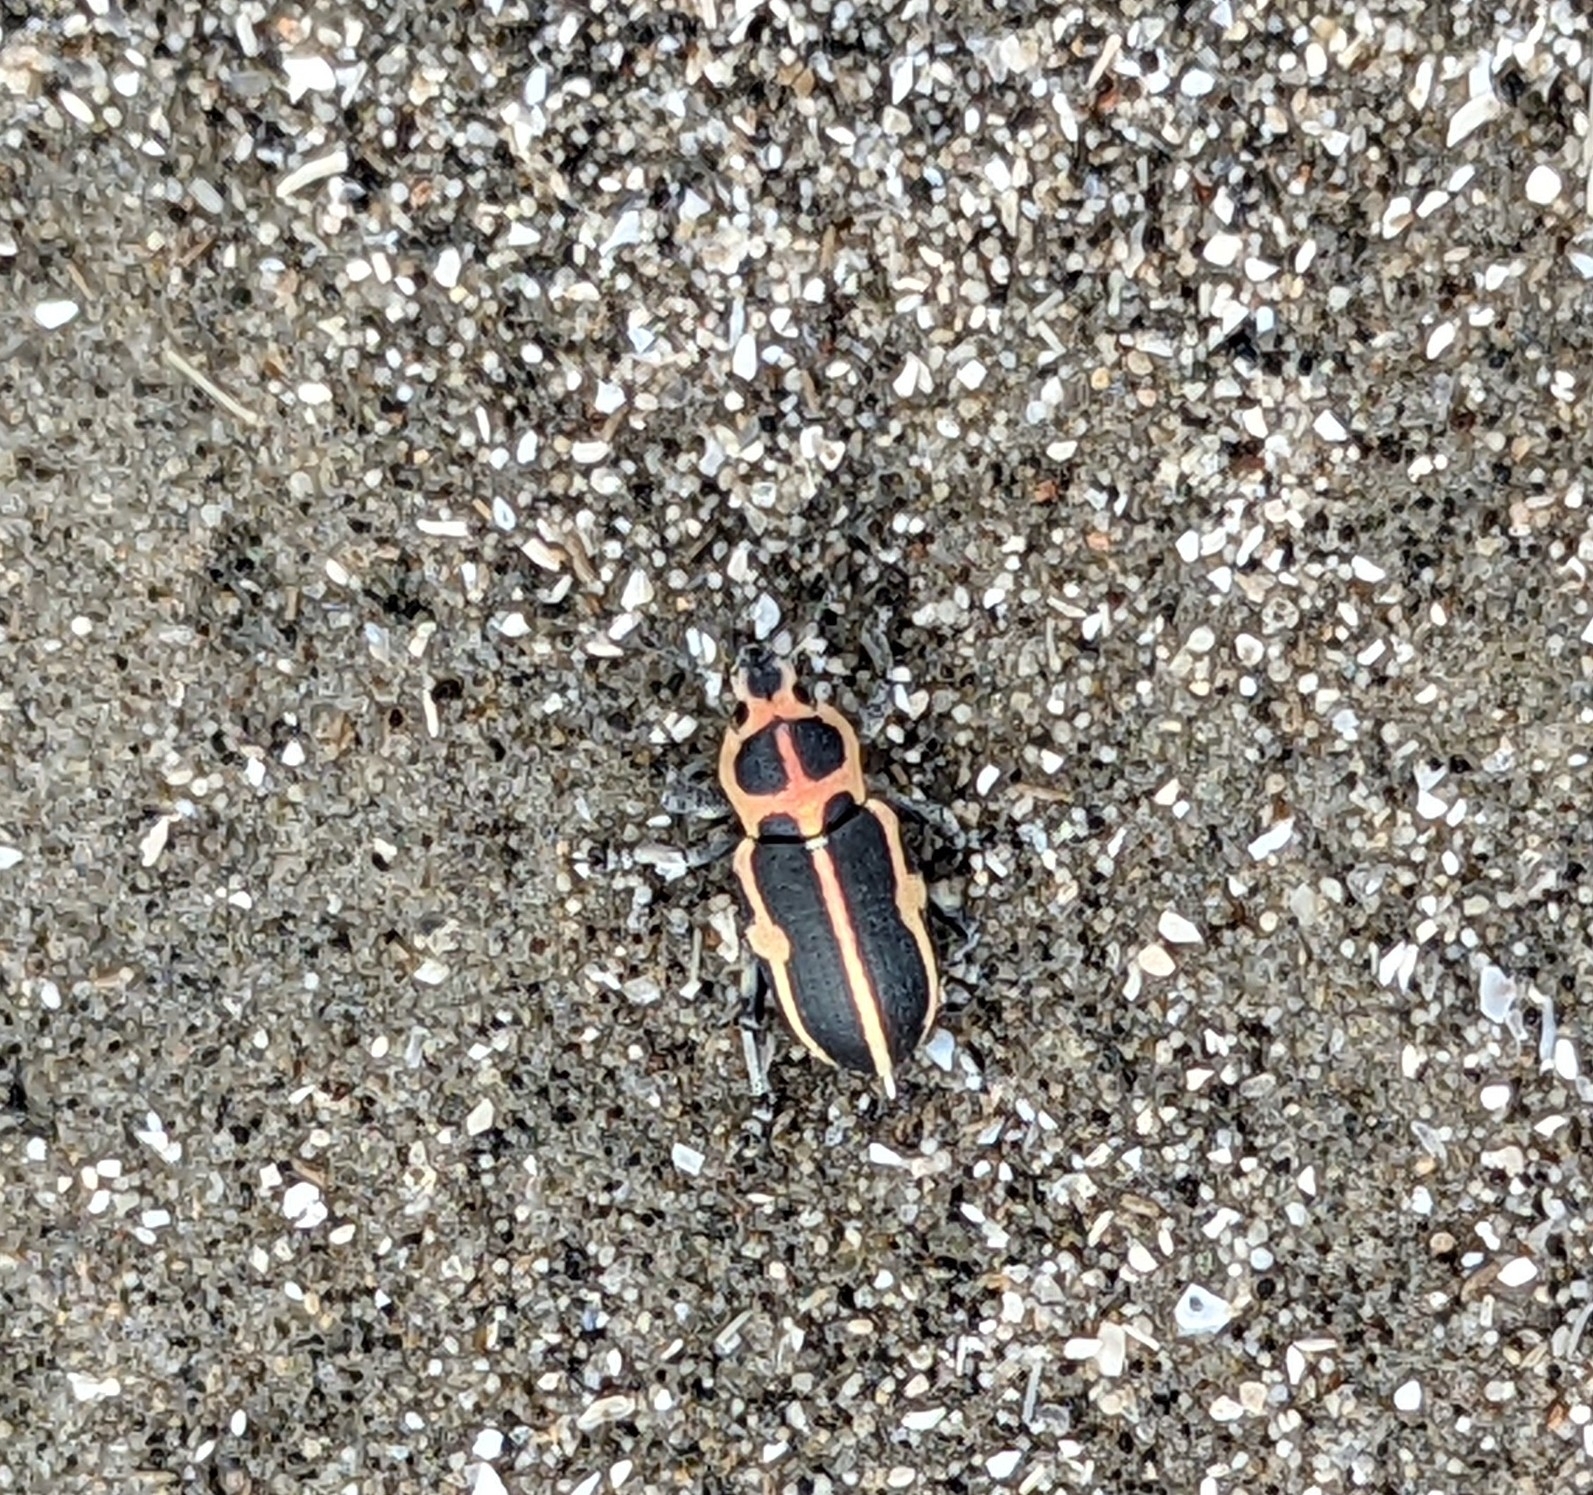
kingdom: Animalia
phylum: Arthropoda
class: Insecta
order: Coleoptera
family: Curculionidae
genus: Eudiagogus
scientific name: Eudiagogus pulcher
